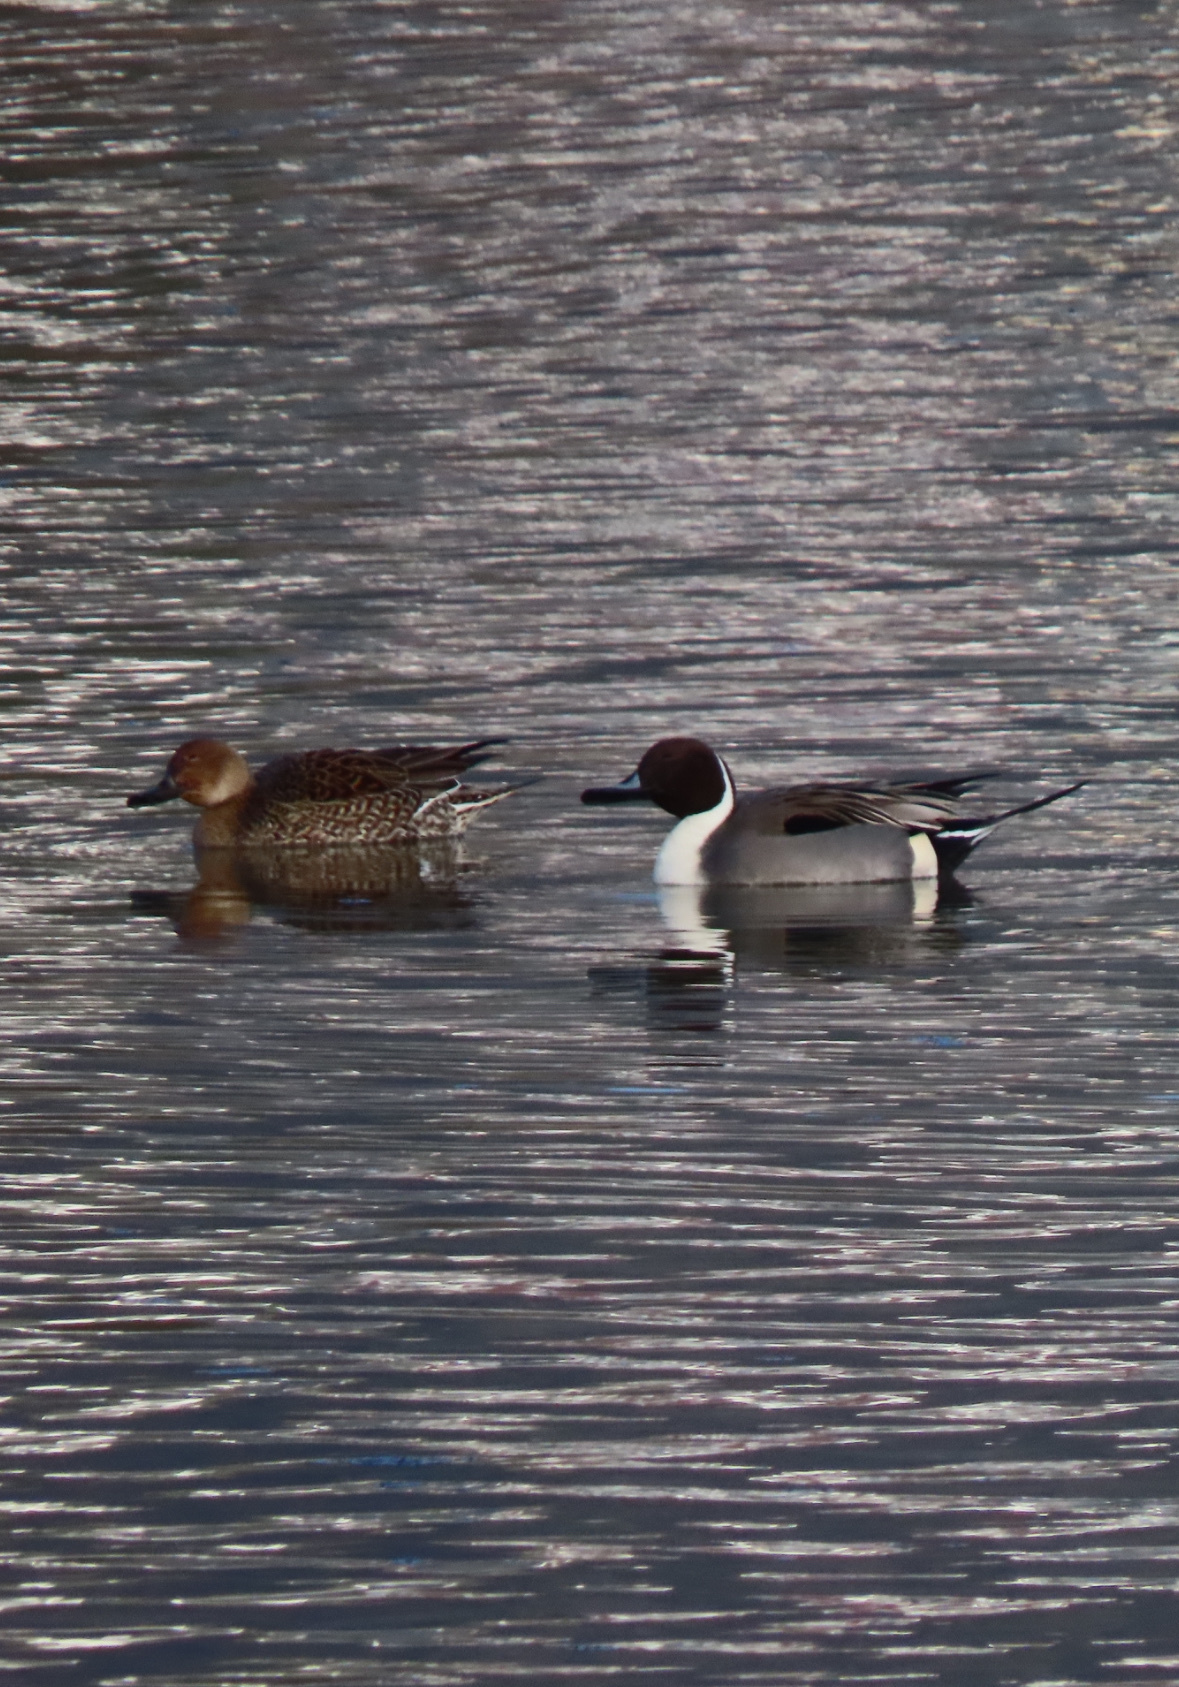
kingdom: Animalia
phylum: Chordata
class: Aves
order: Anseriformes
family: Anatidae
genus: Anas
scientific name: Anas acuta
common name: Northern pintail
